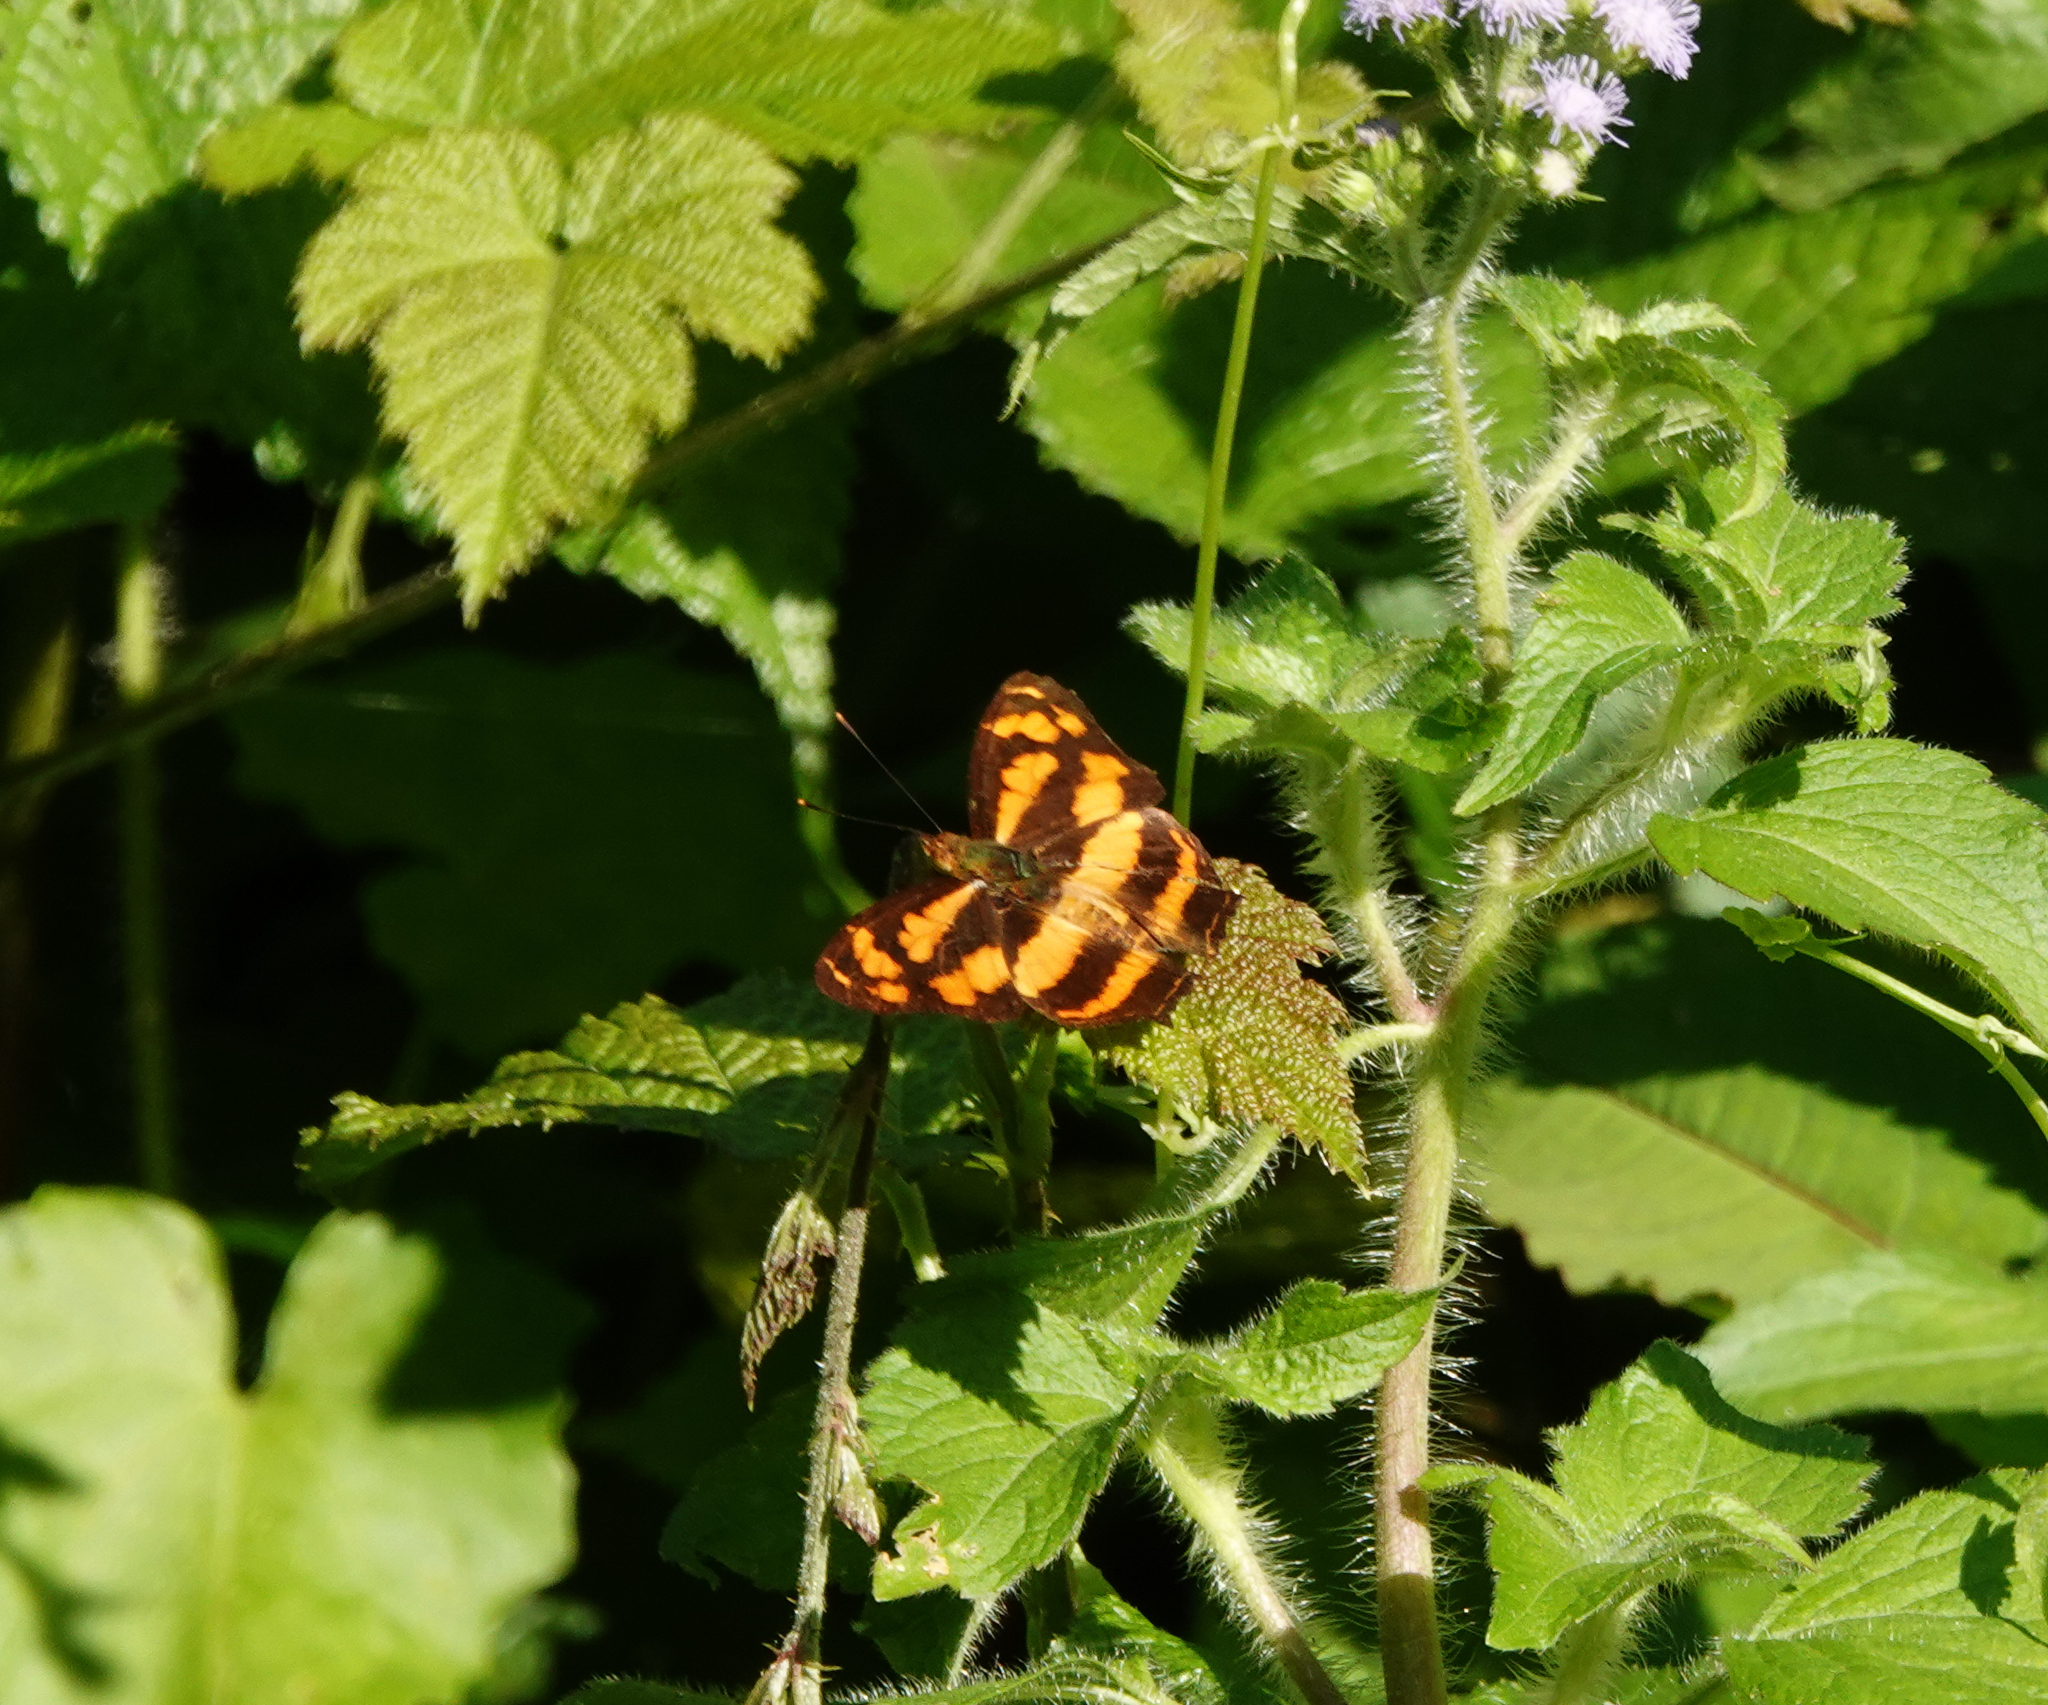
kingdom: Animalia
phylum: Arthropoda
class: Insecta
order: Lepidoptera
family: Nymphalidae
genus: Symbrenthia
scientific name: Symbrenthia hypselis
